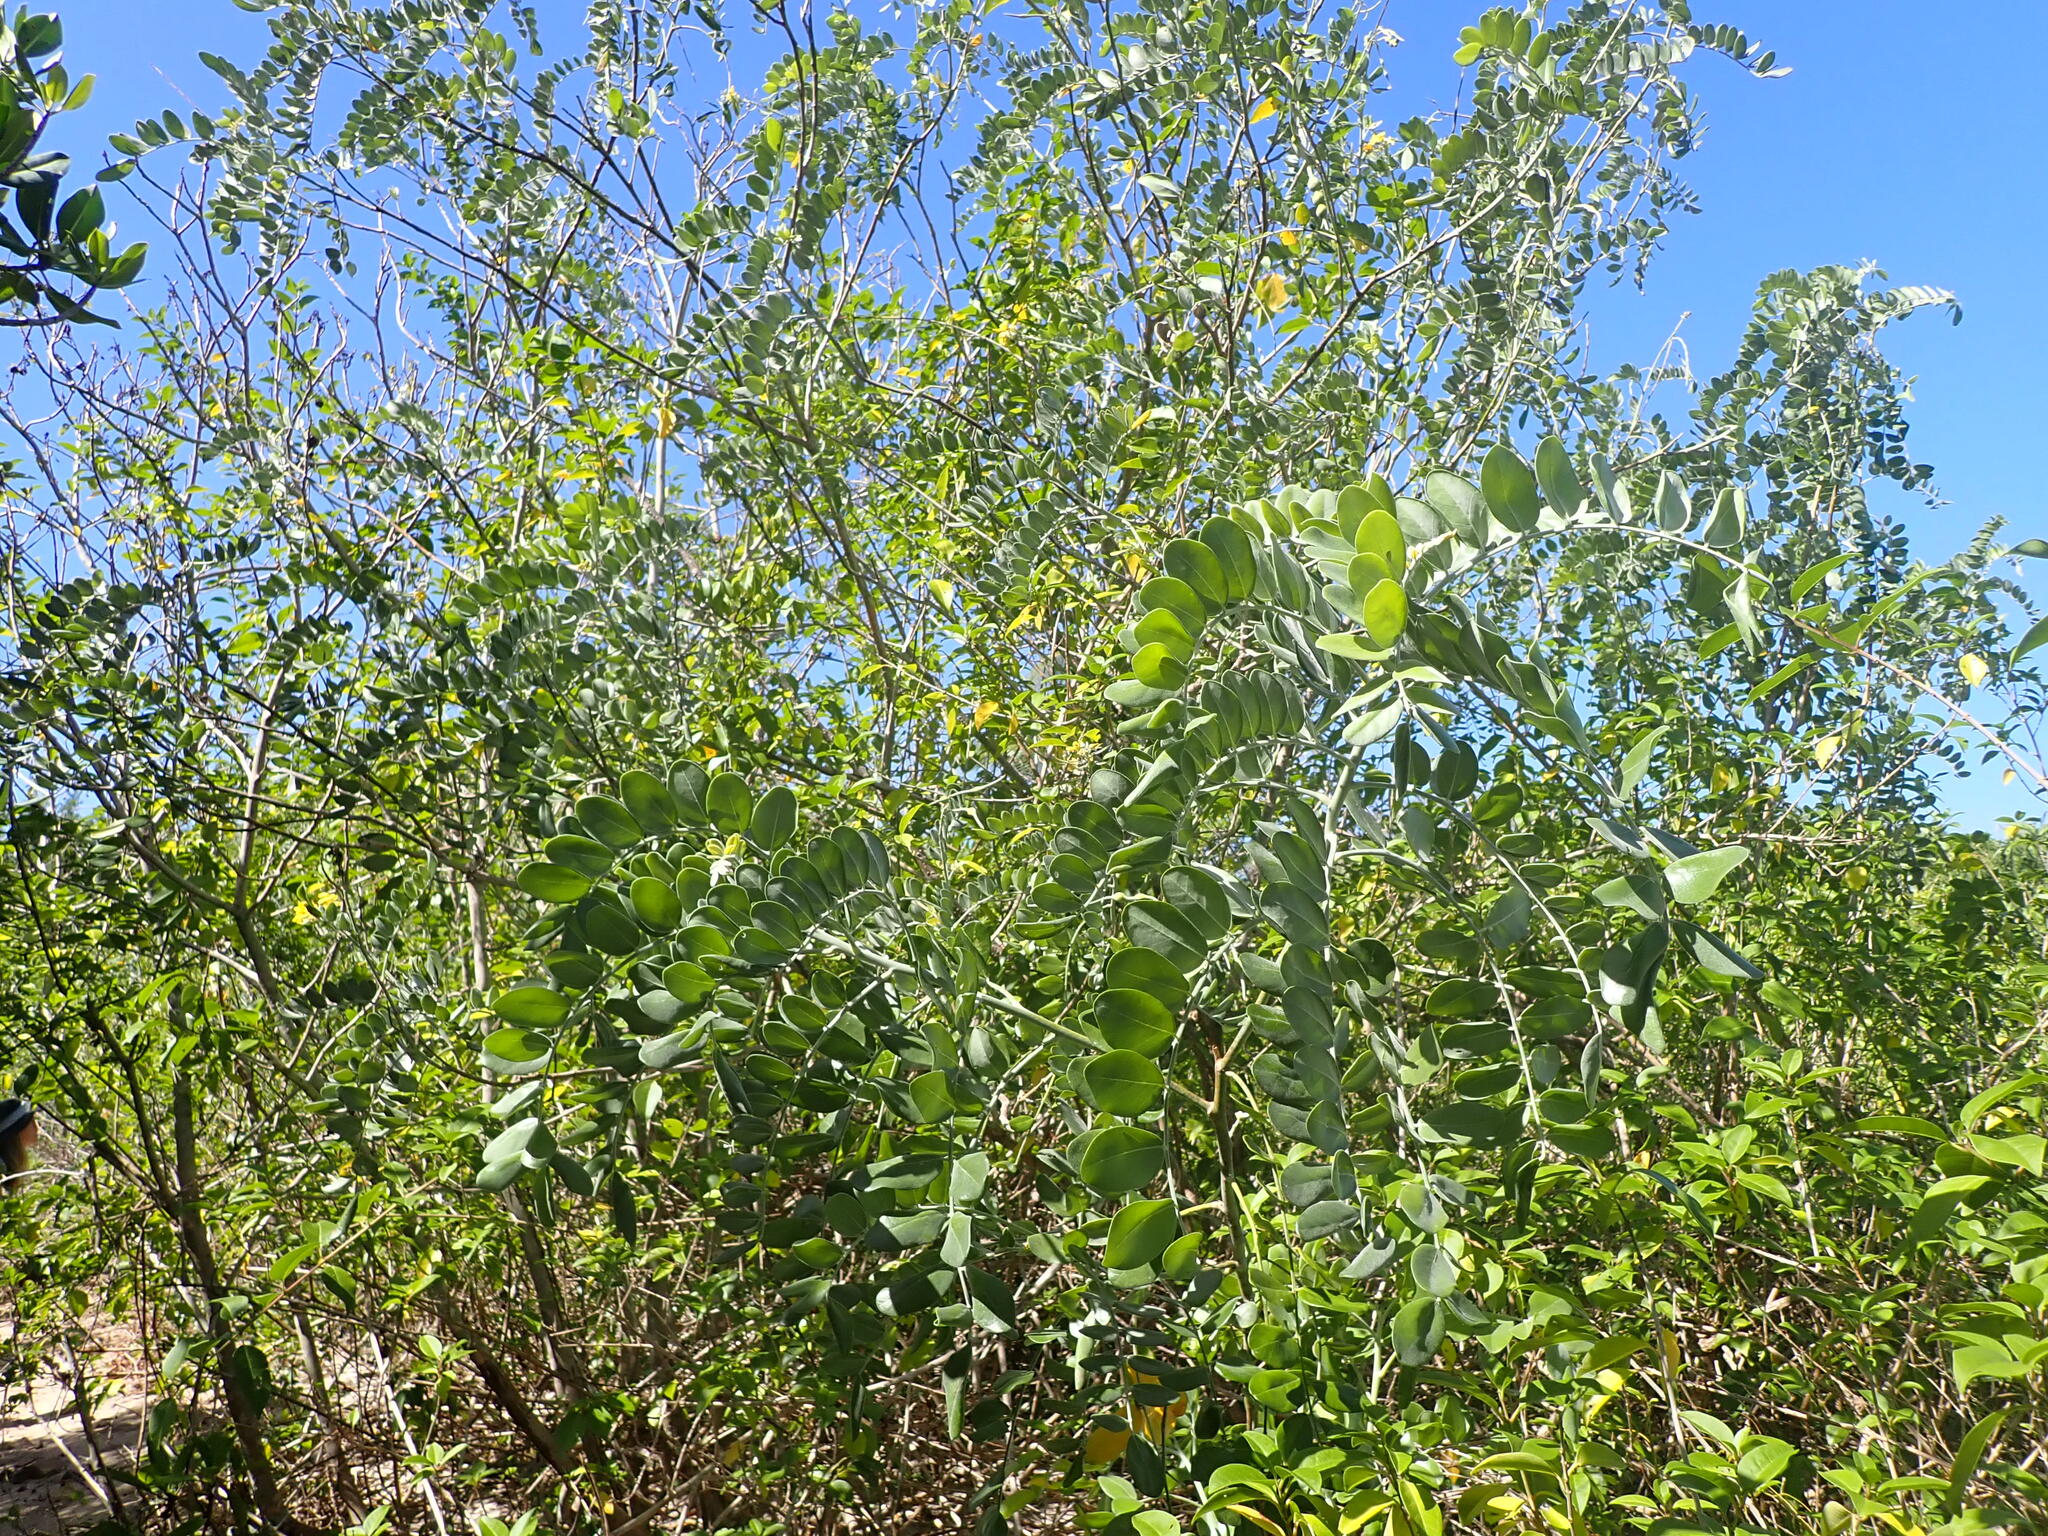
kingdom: Plantae
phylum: Tracheophyta
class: Magnoliopsida
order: Fabales
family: Fabaceae
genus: Sophora
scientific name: Sophora tomentosa
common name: Yellow necklacepod
